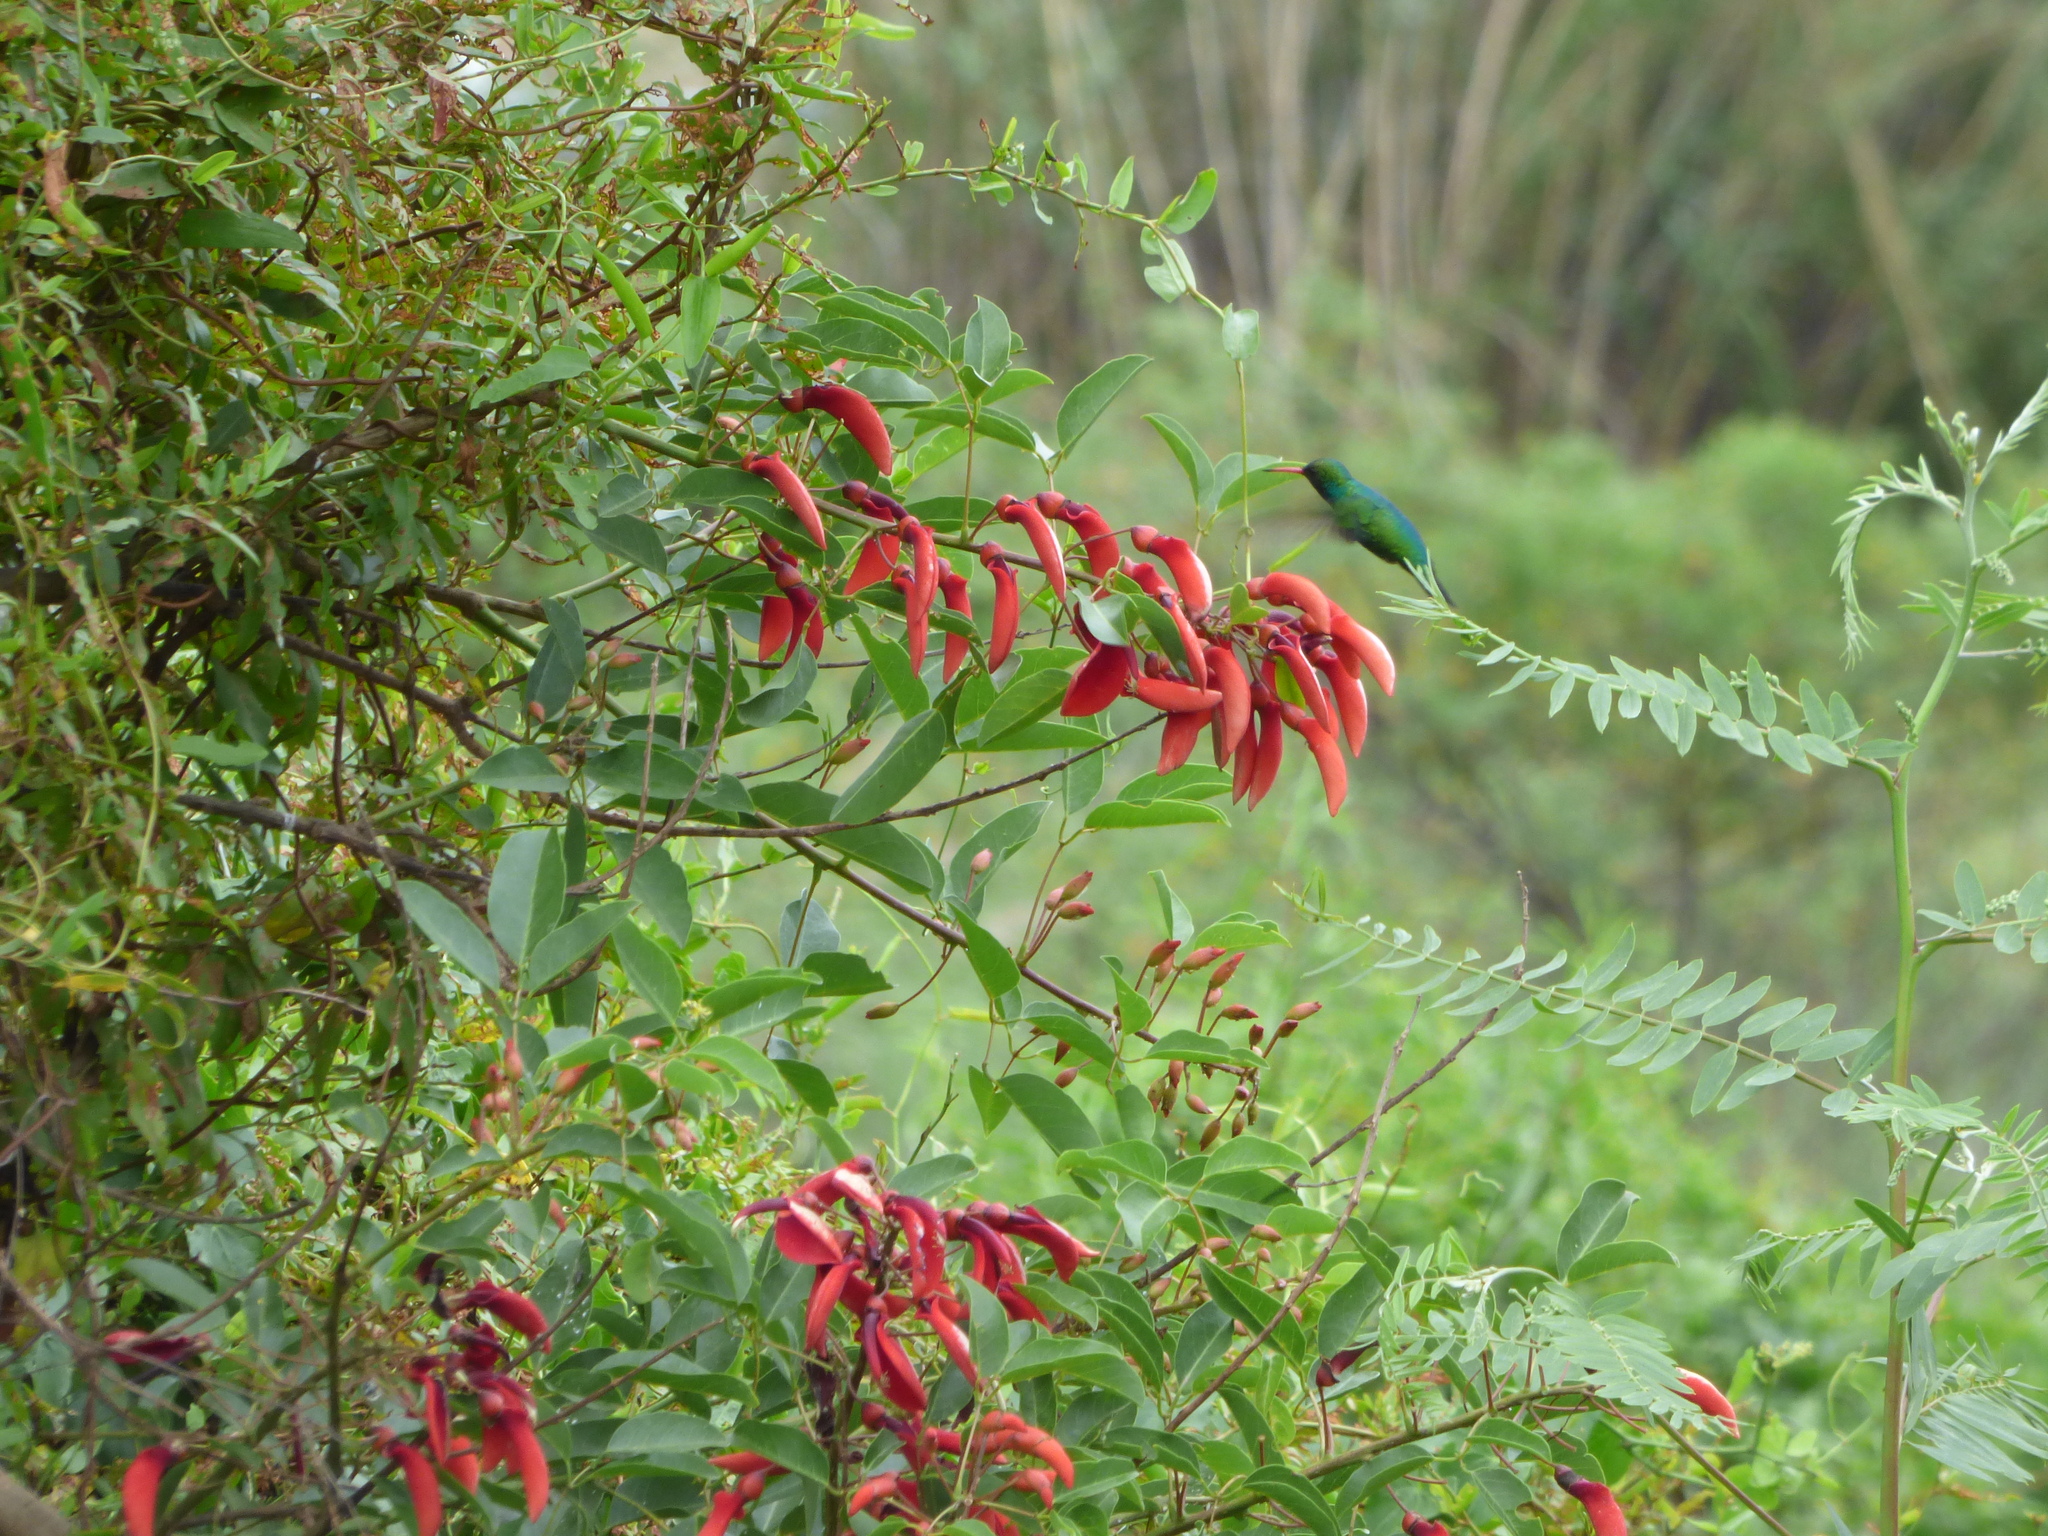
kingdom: Animalia
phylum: Chordata
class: Aves
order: Apodiformes
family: Trochilidae
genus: Chlorostilbon
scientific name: Chlorostilbon lucidus
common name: Glittering-bellied emerald
